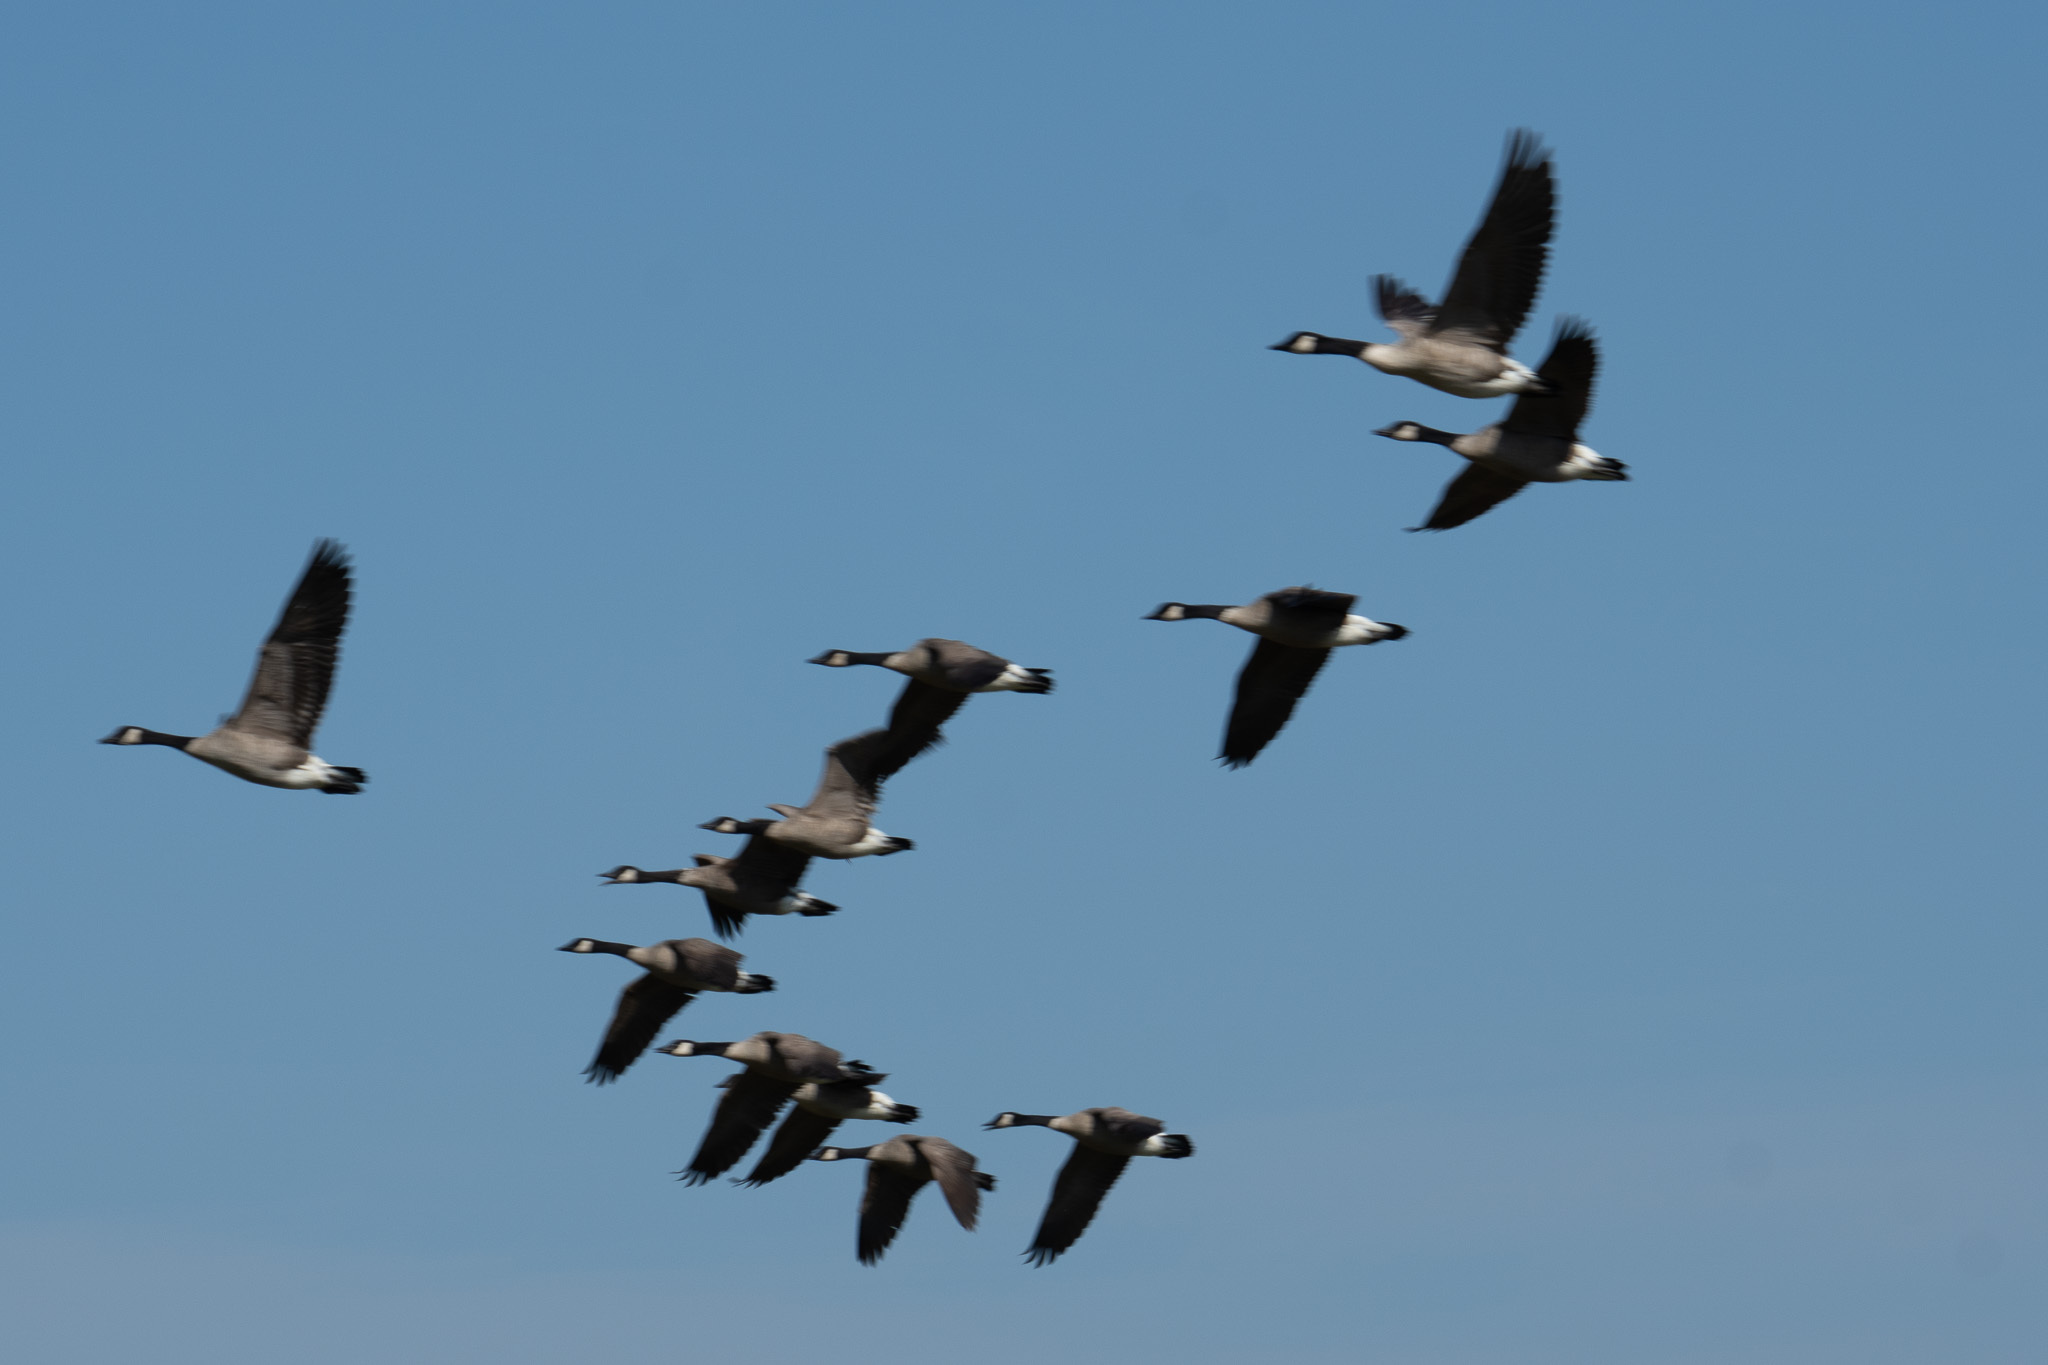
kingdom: Animalia
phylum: Chordata
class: Aves
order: Anseriformes
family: Anatidae
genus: Branta
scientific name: Branta canadensis
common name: Canada goose
